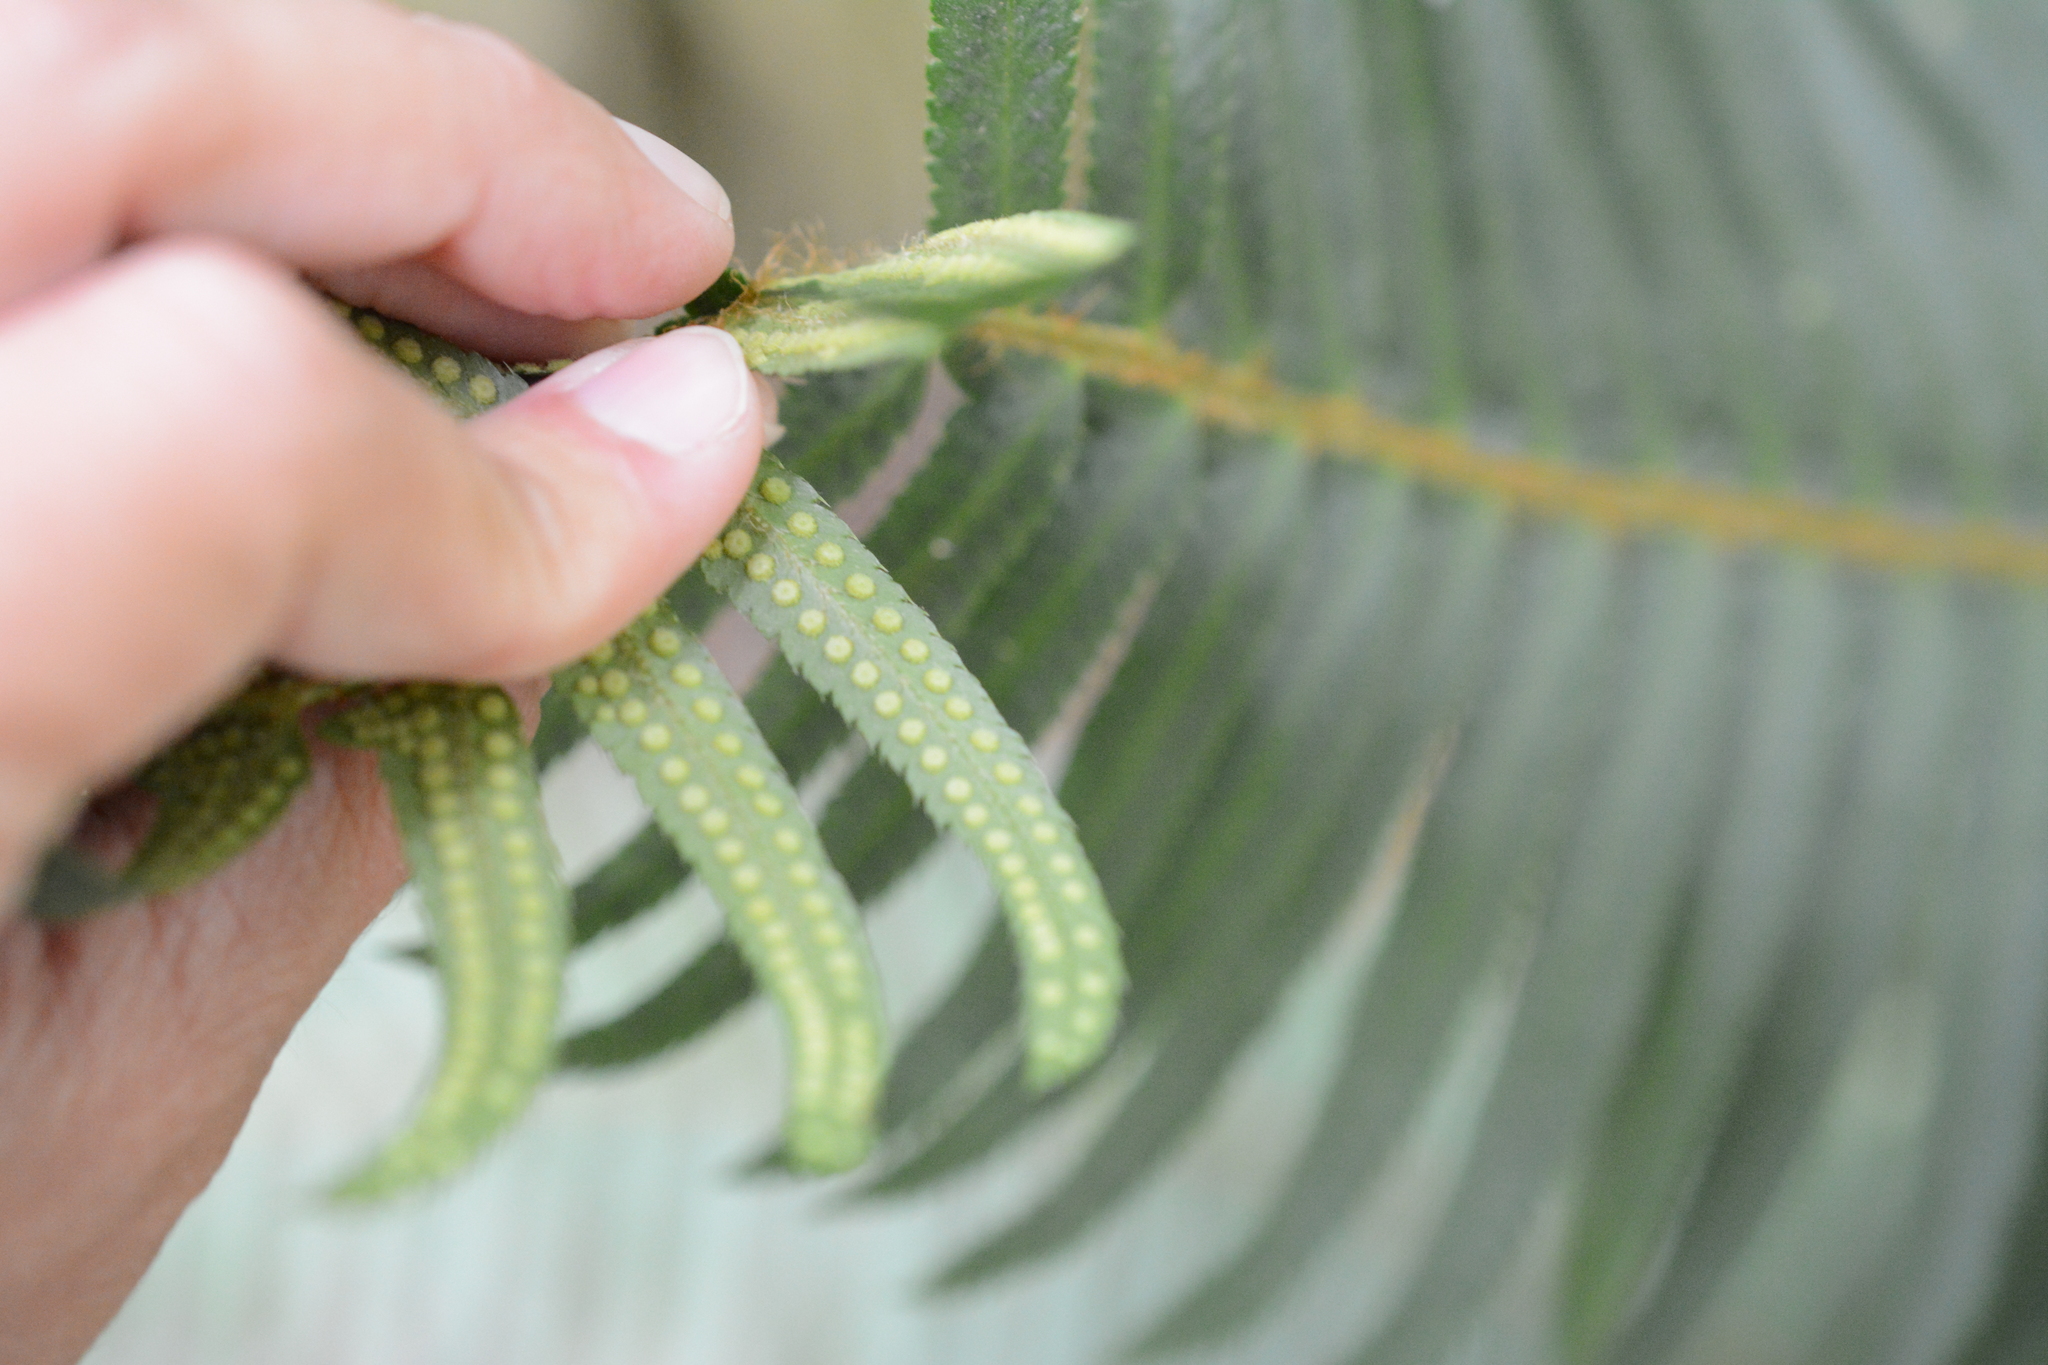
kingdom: Plantae
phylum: Tracheophyta
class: Polypodiopsida
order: Polypodiales
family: Dryopteridaceae
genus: Polystichum
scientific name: Polystichum munitum
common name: Western sword-fern
